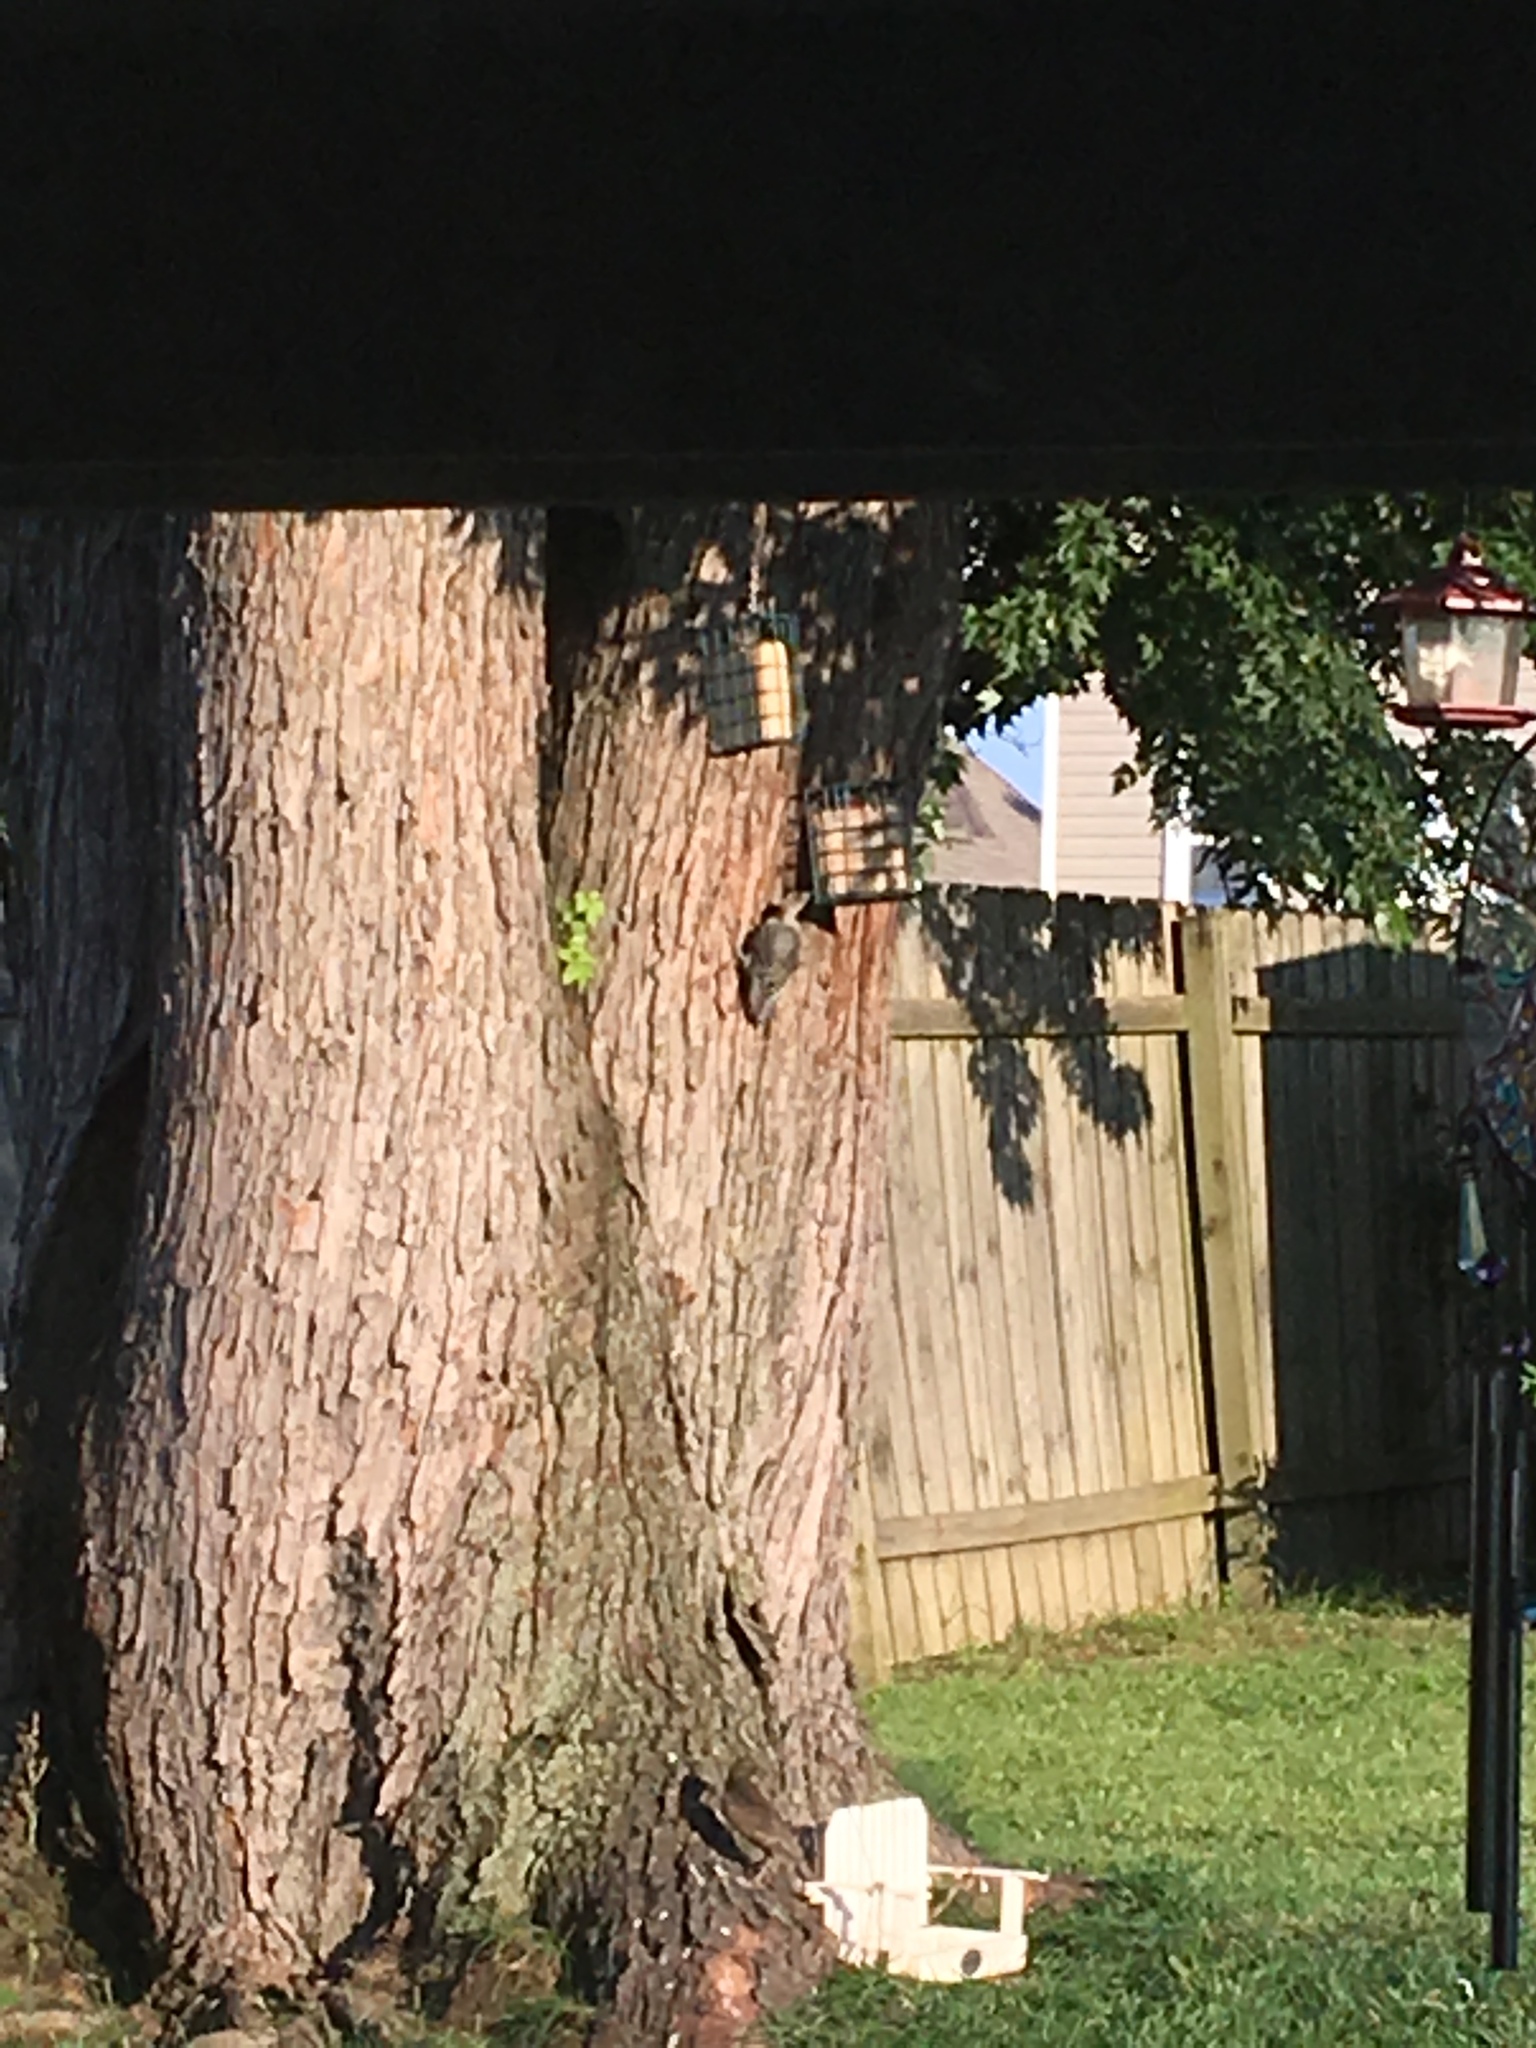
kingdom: Animalia
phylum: Chordata
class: Aves
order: Piciformes
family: Picidae
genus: Melanerpes
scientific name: Melanerpes carolinus
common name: Red-bellied woodpecker
